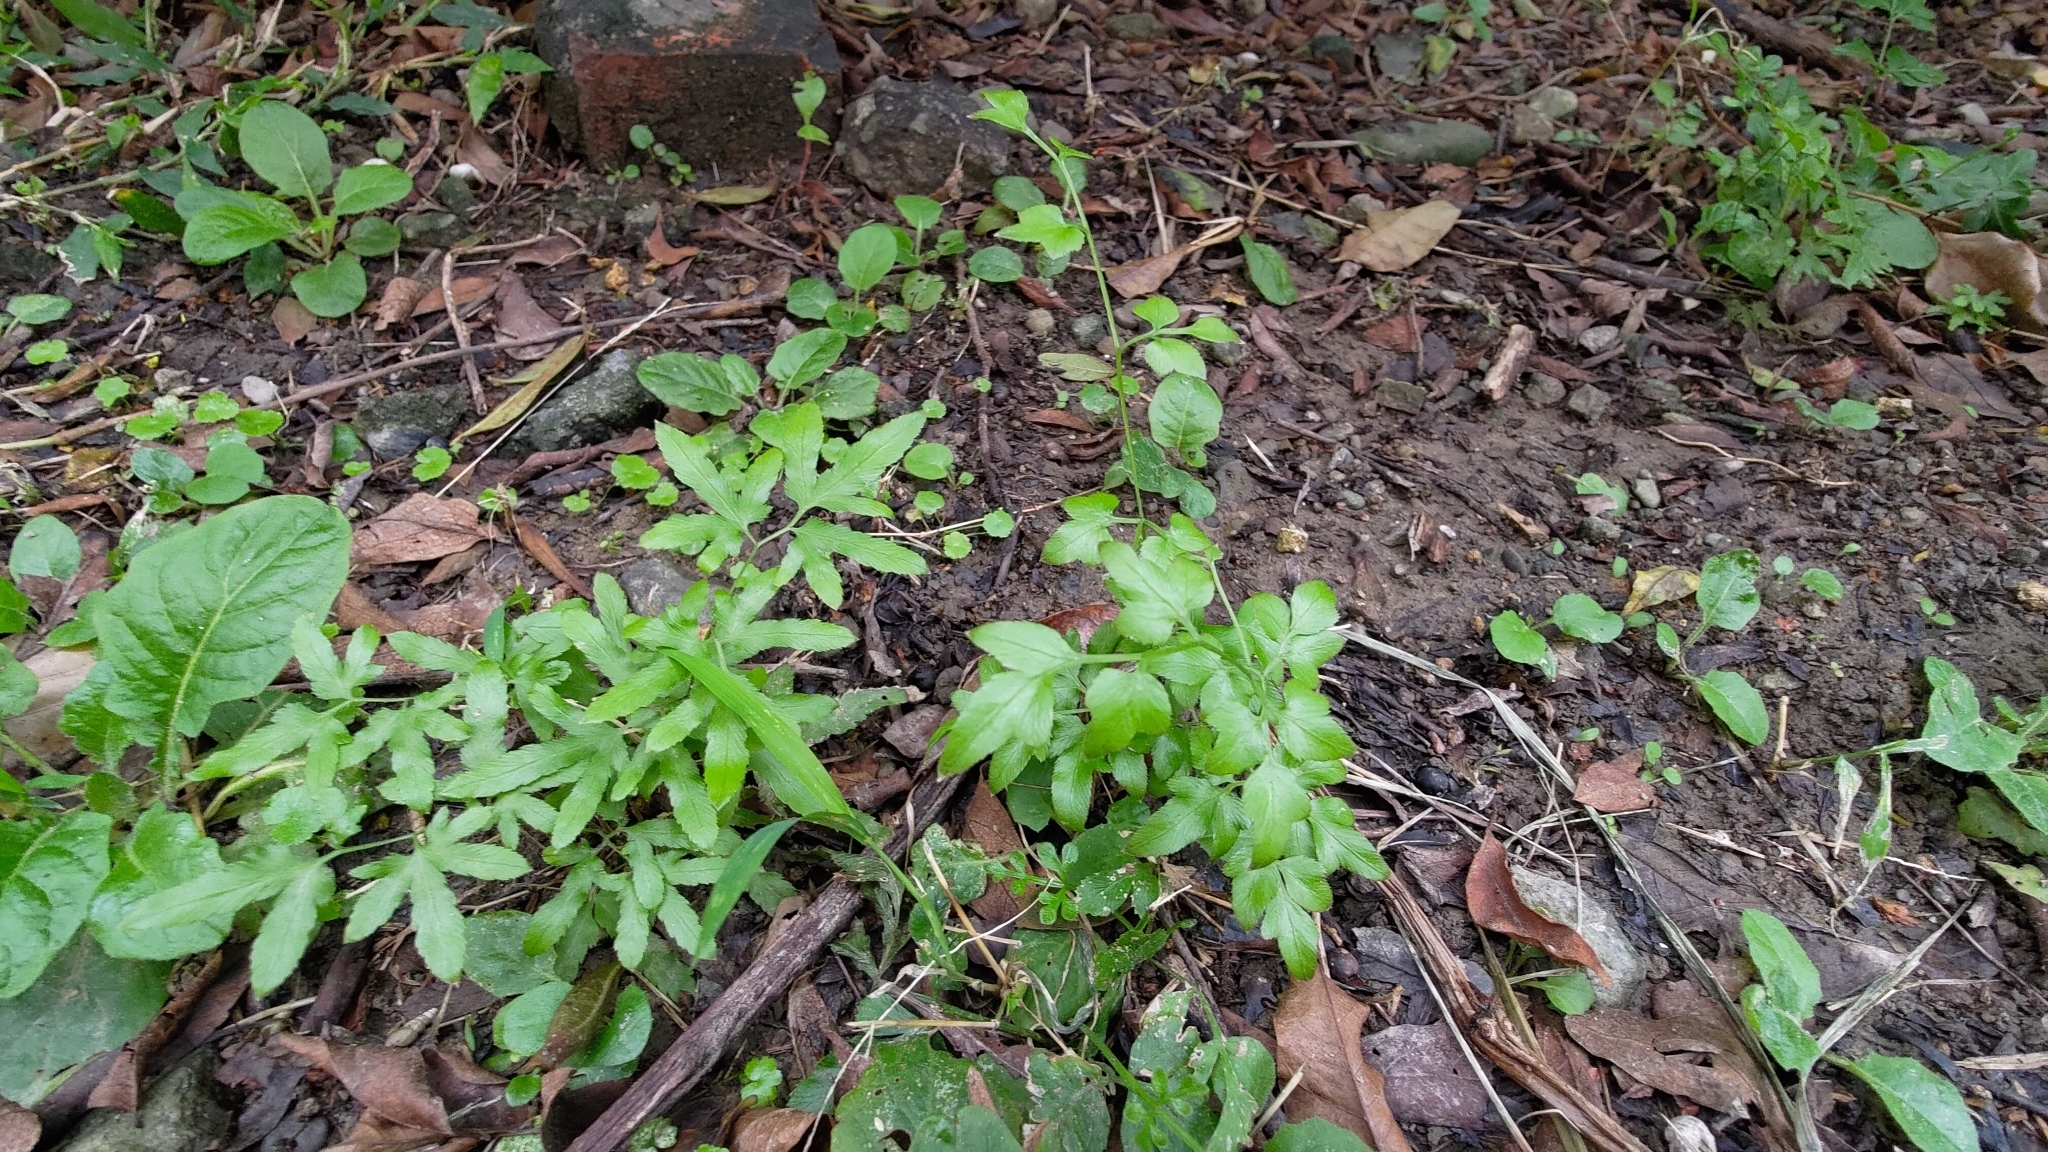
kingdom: Plantae
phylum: Tracheophyta
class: Polypodiopsida
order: Schizaeales
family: Lygodiaceae
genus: Lygodium
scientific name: Lygodium japonicum
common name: Japanese climbing fern
